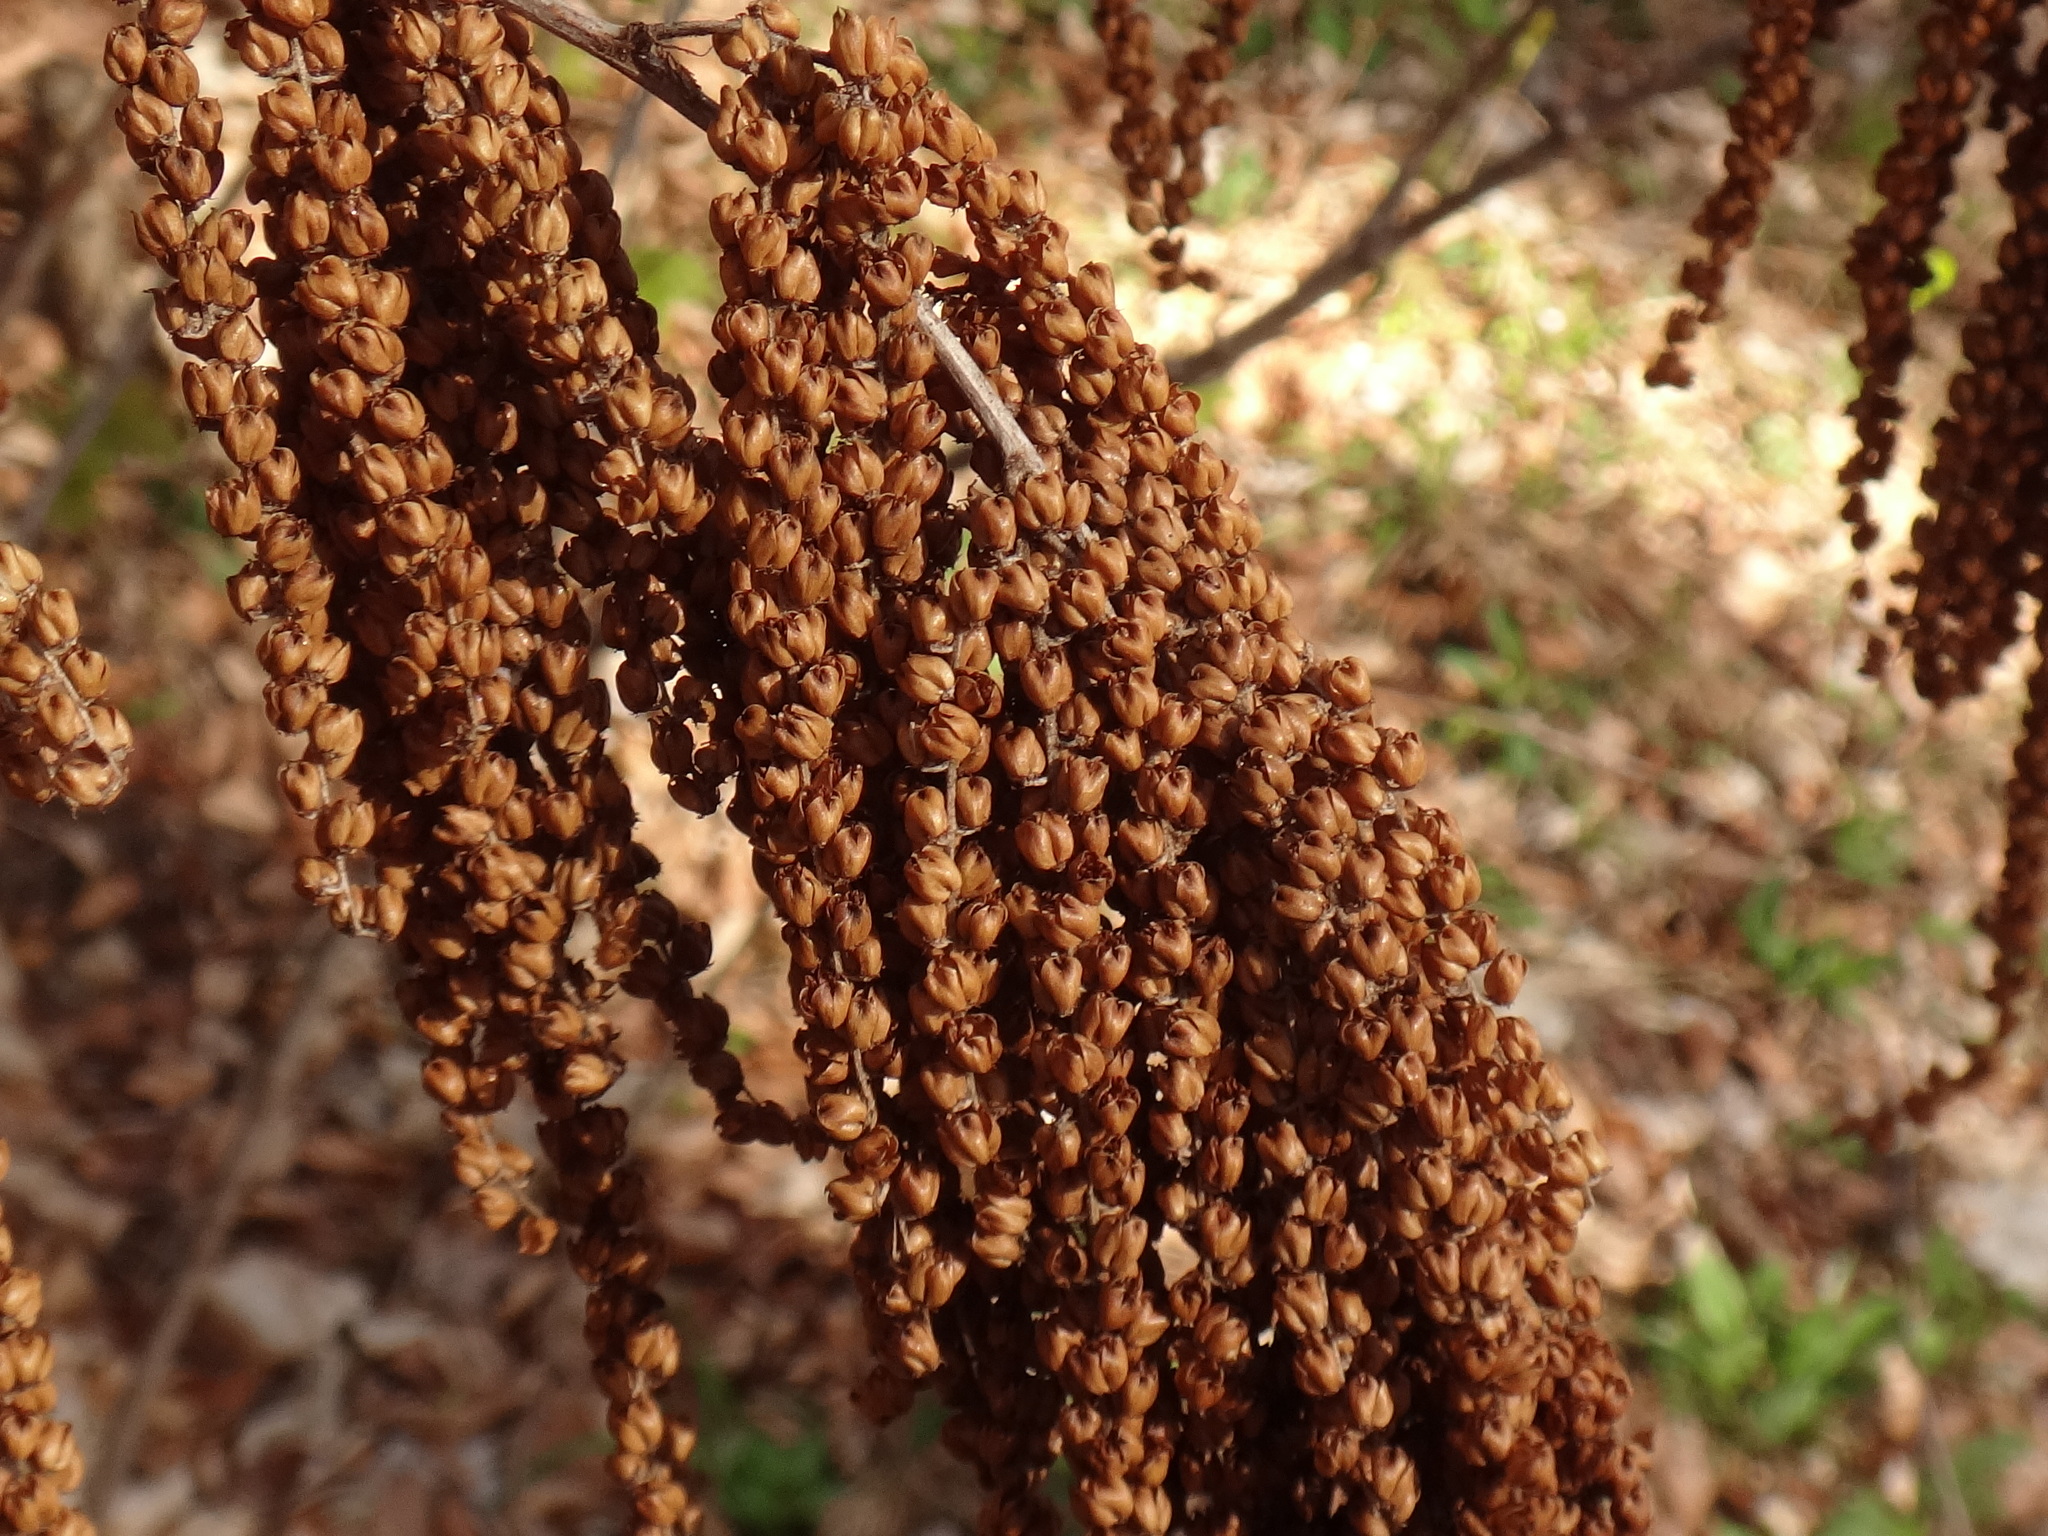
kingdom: Plantae
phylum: Tracheophyta
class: Magnoliopsida
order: Rosales
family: Rosaceae
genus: Aruncus
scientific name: Aruncus dioicus
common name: Buck's-beard
